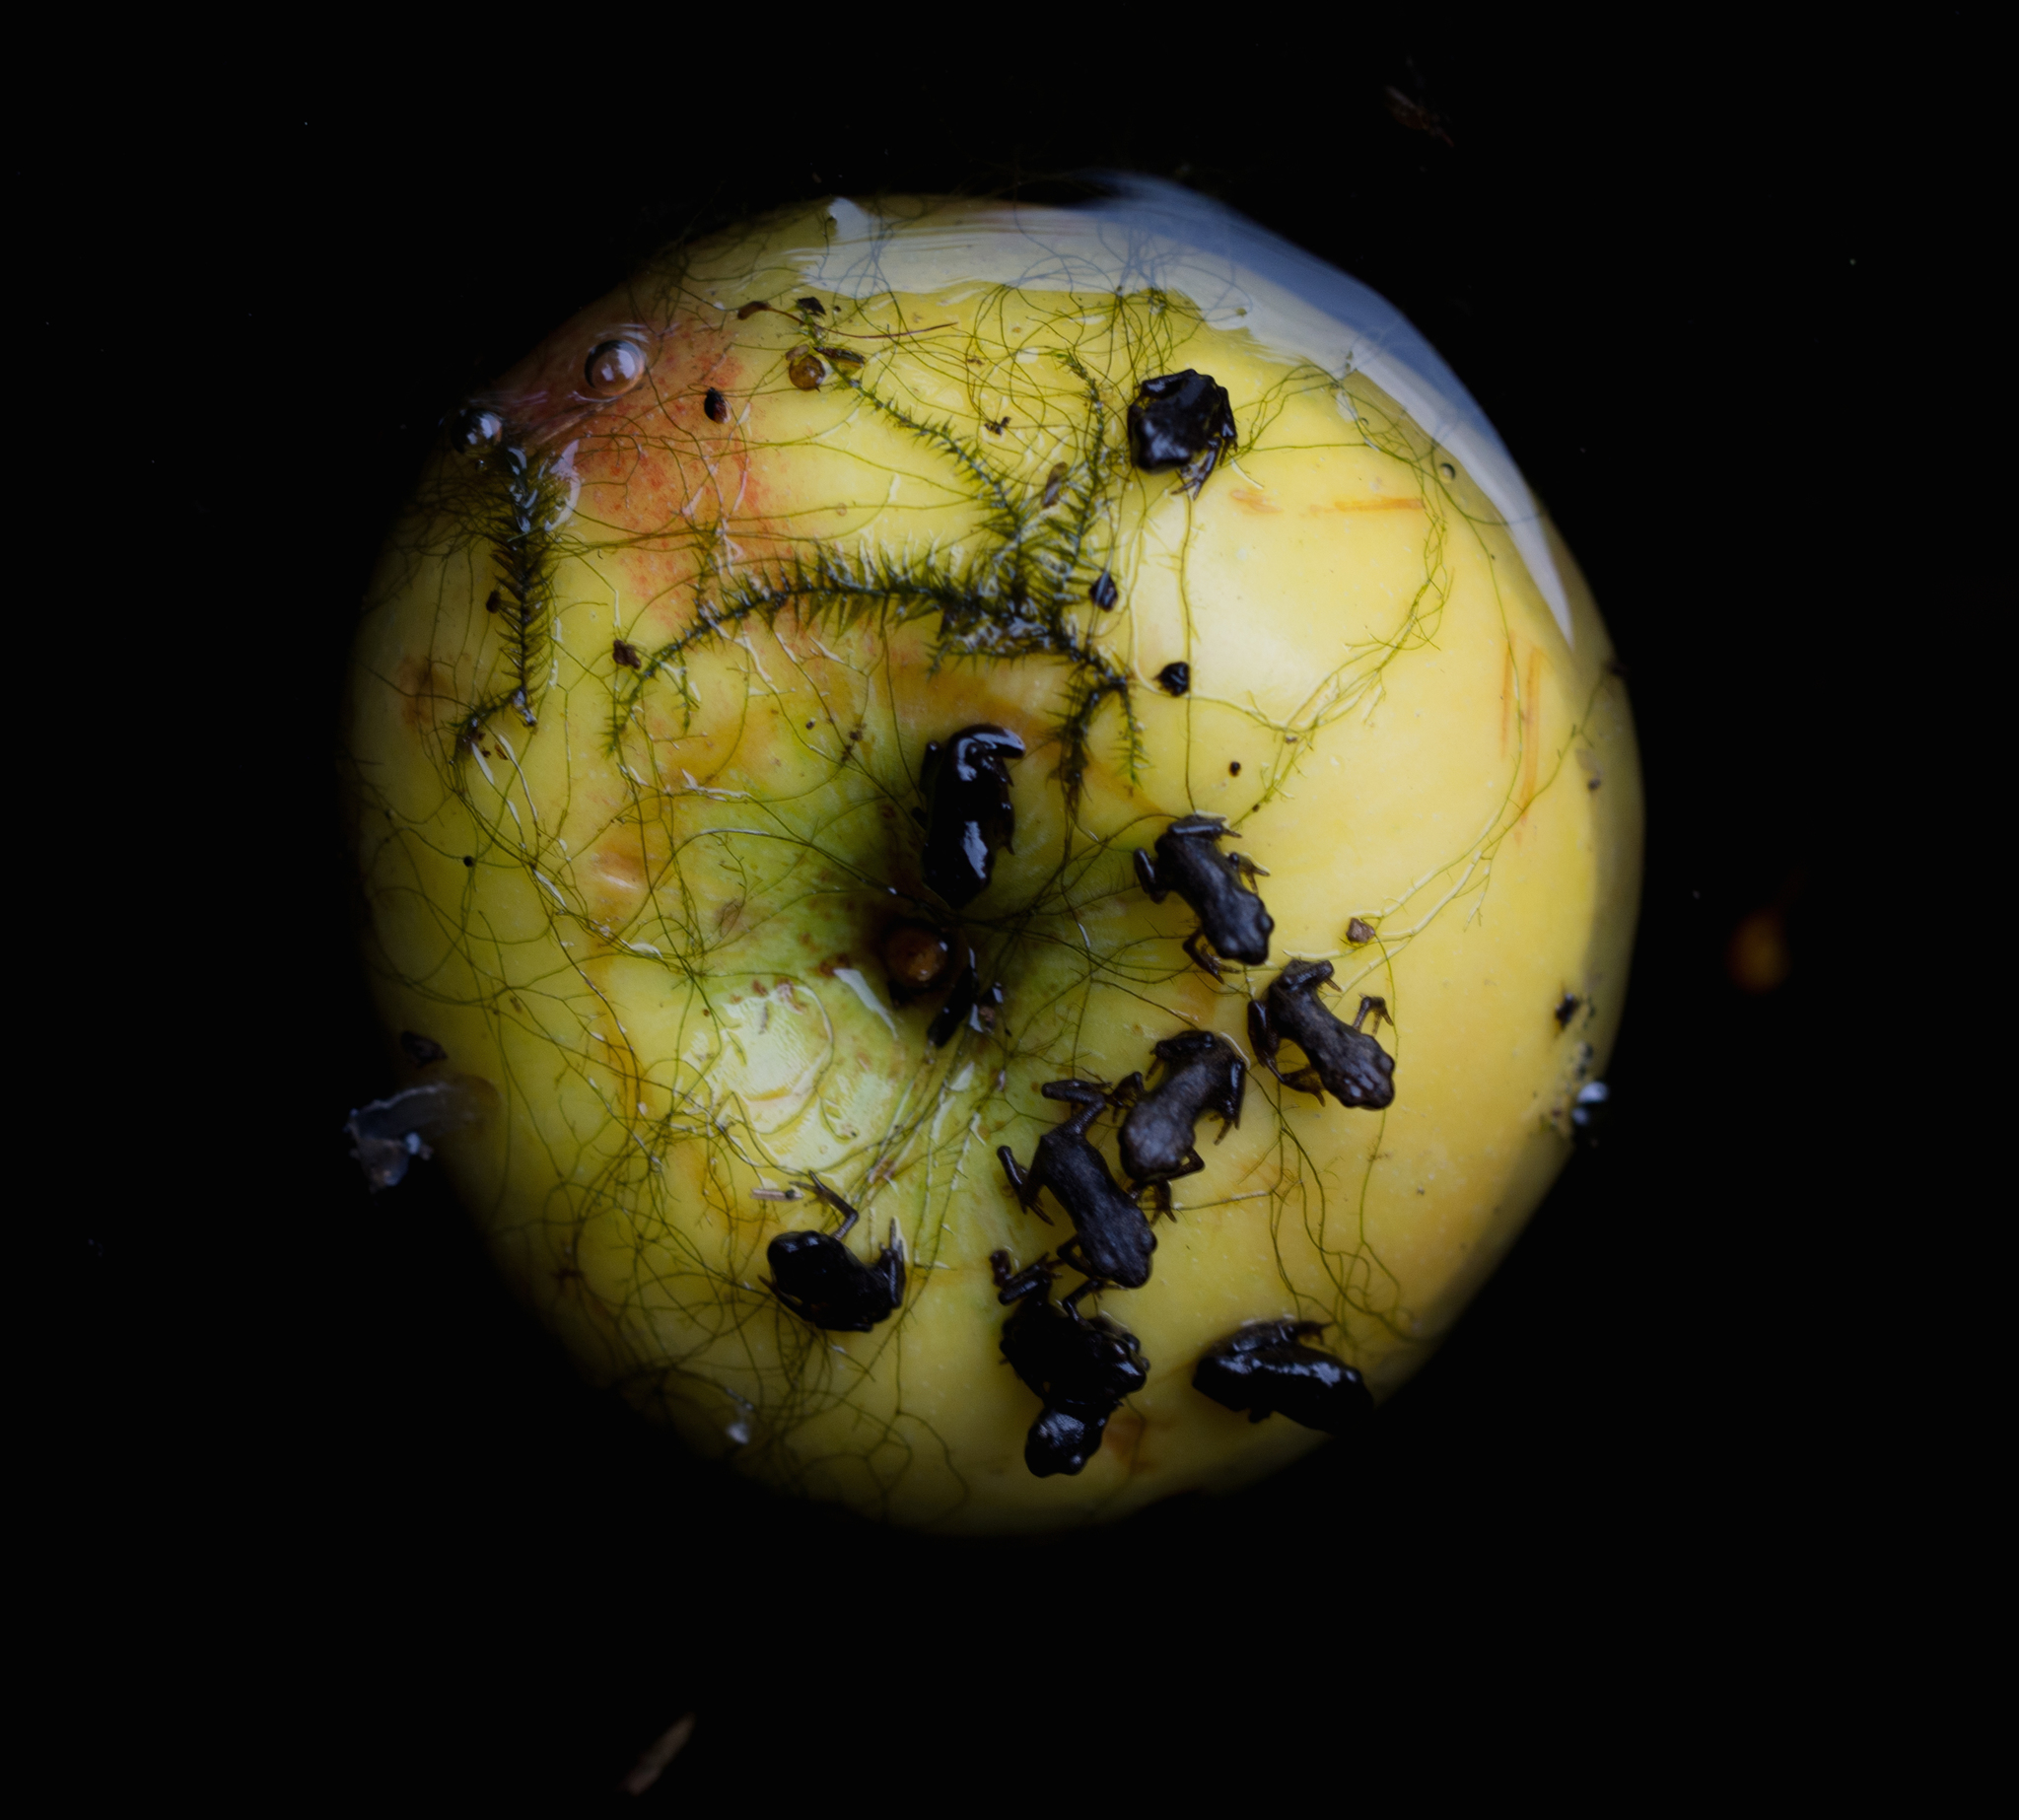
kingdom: Animalia
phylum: Chordata
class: Amphibia
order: Anura
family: Bufonidae
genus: Bufo
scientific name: Bufo bufo
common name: Common toad
